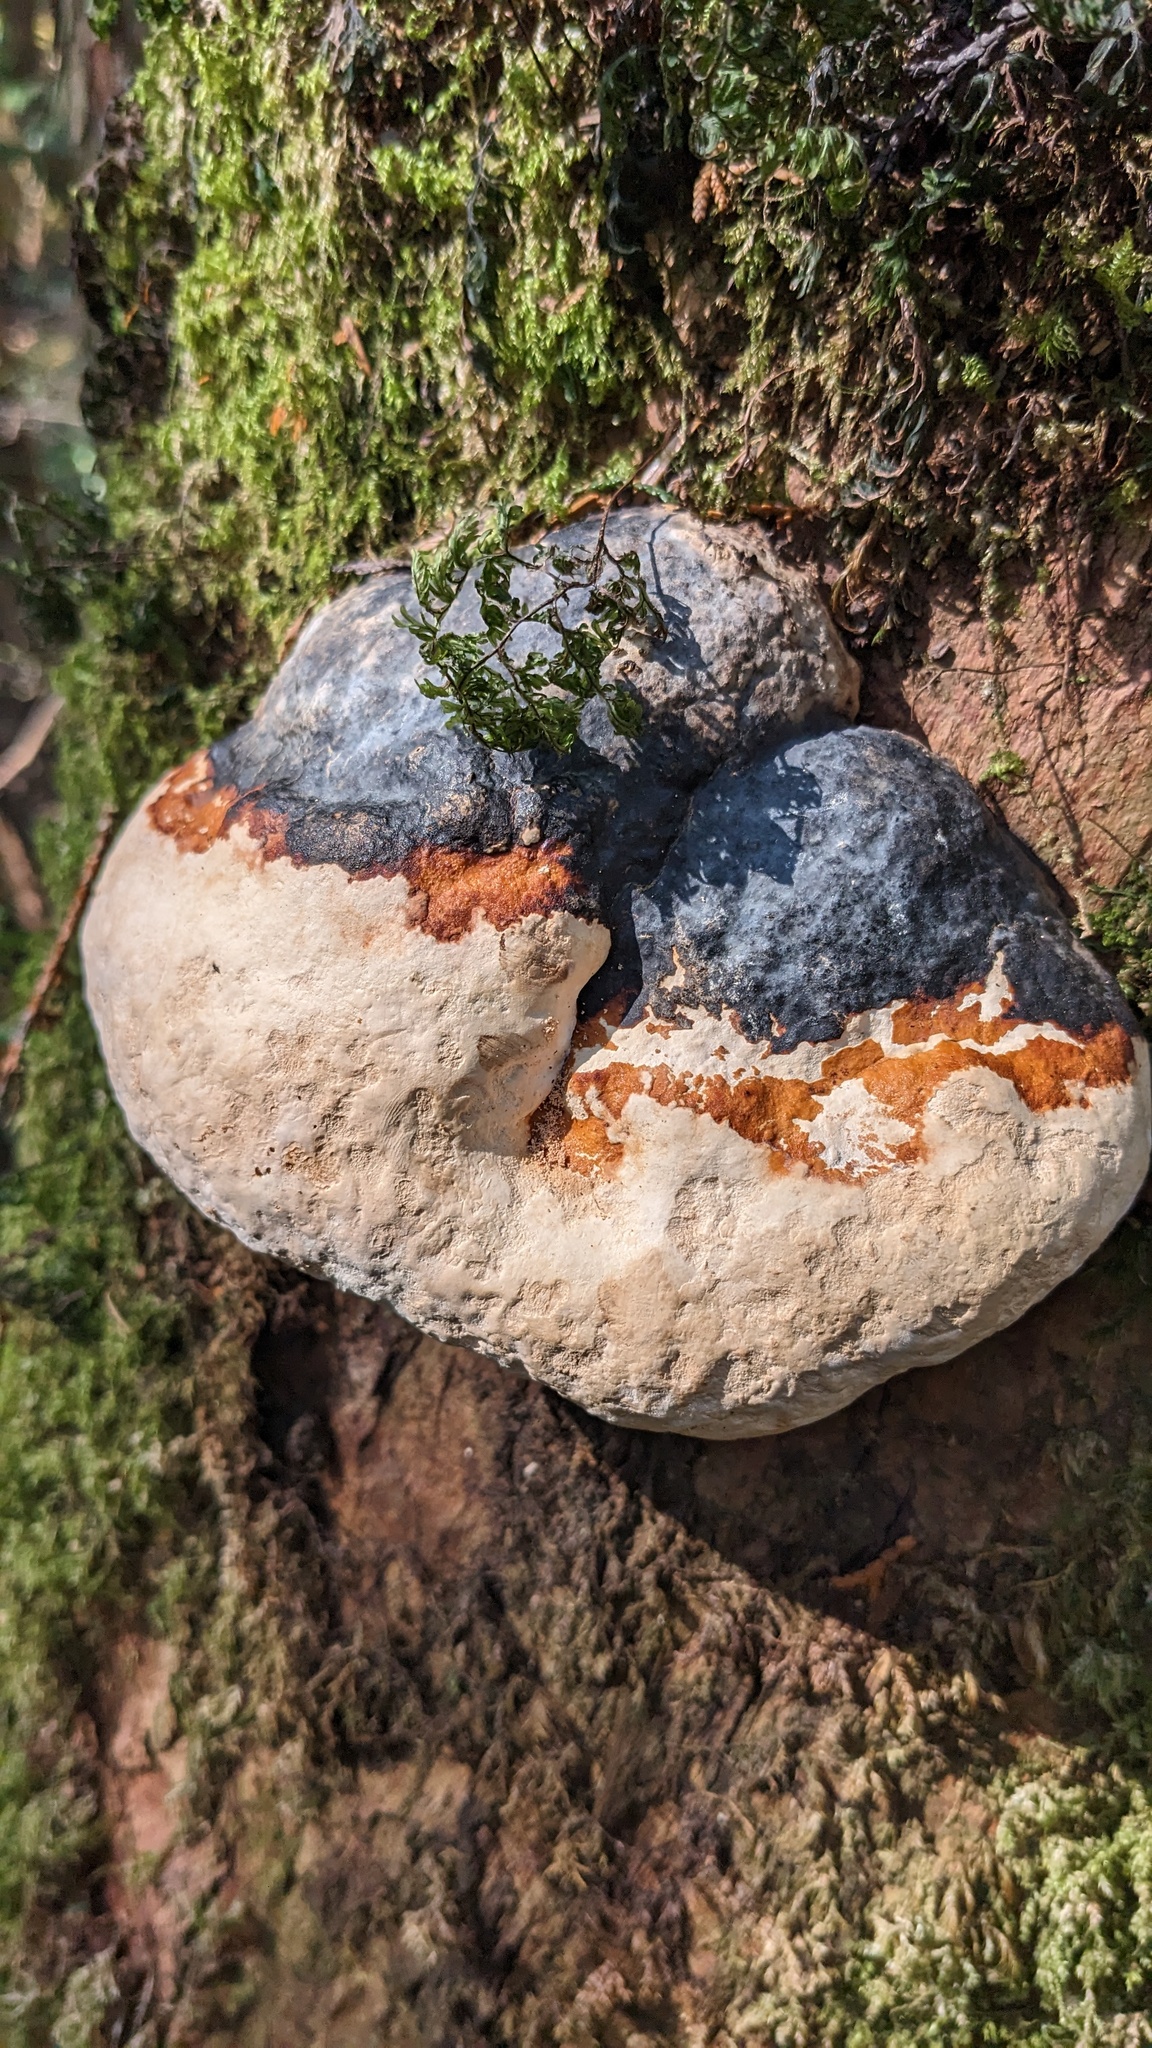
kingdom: Fungi
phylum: Basidiomycota
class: Agaricomycetes
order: Polyporales
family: Fomitopsidaceae
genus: Fomitopsis
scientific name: Fomitopsis pinicola
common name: Red-belted bracket
